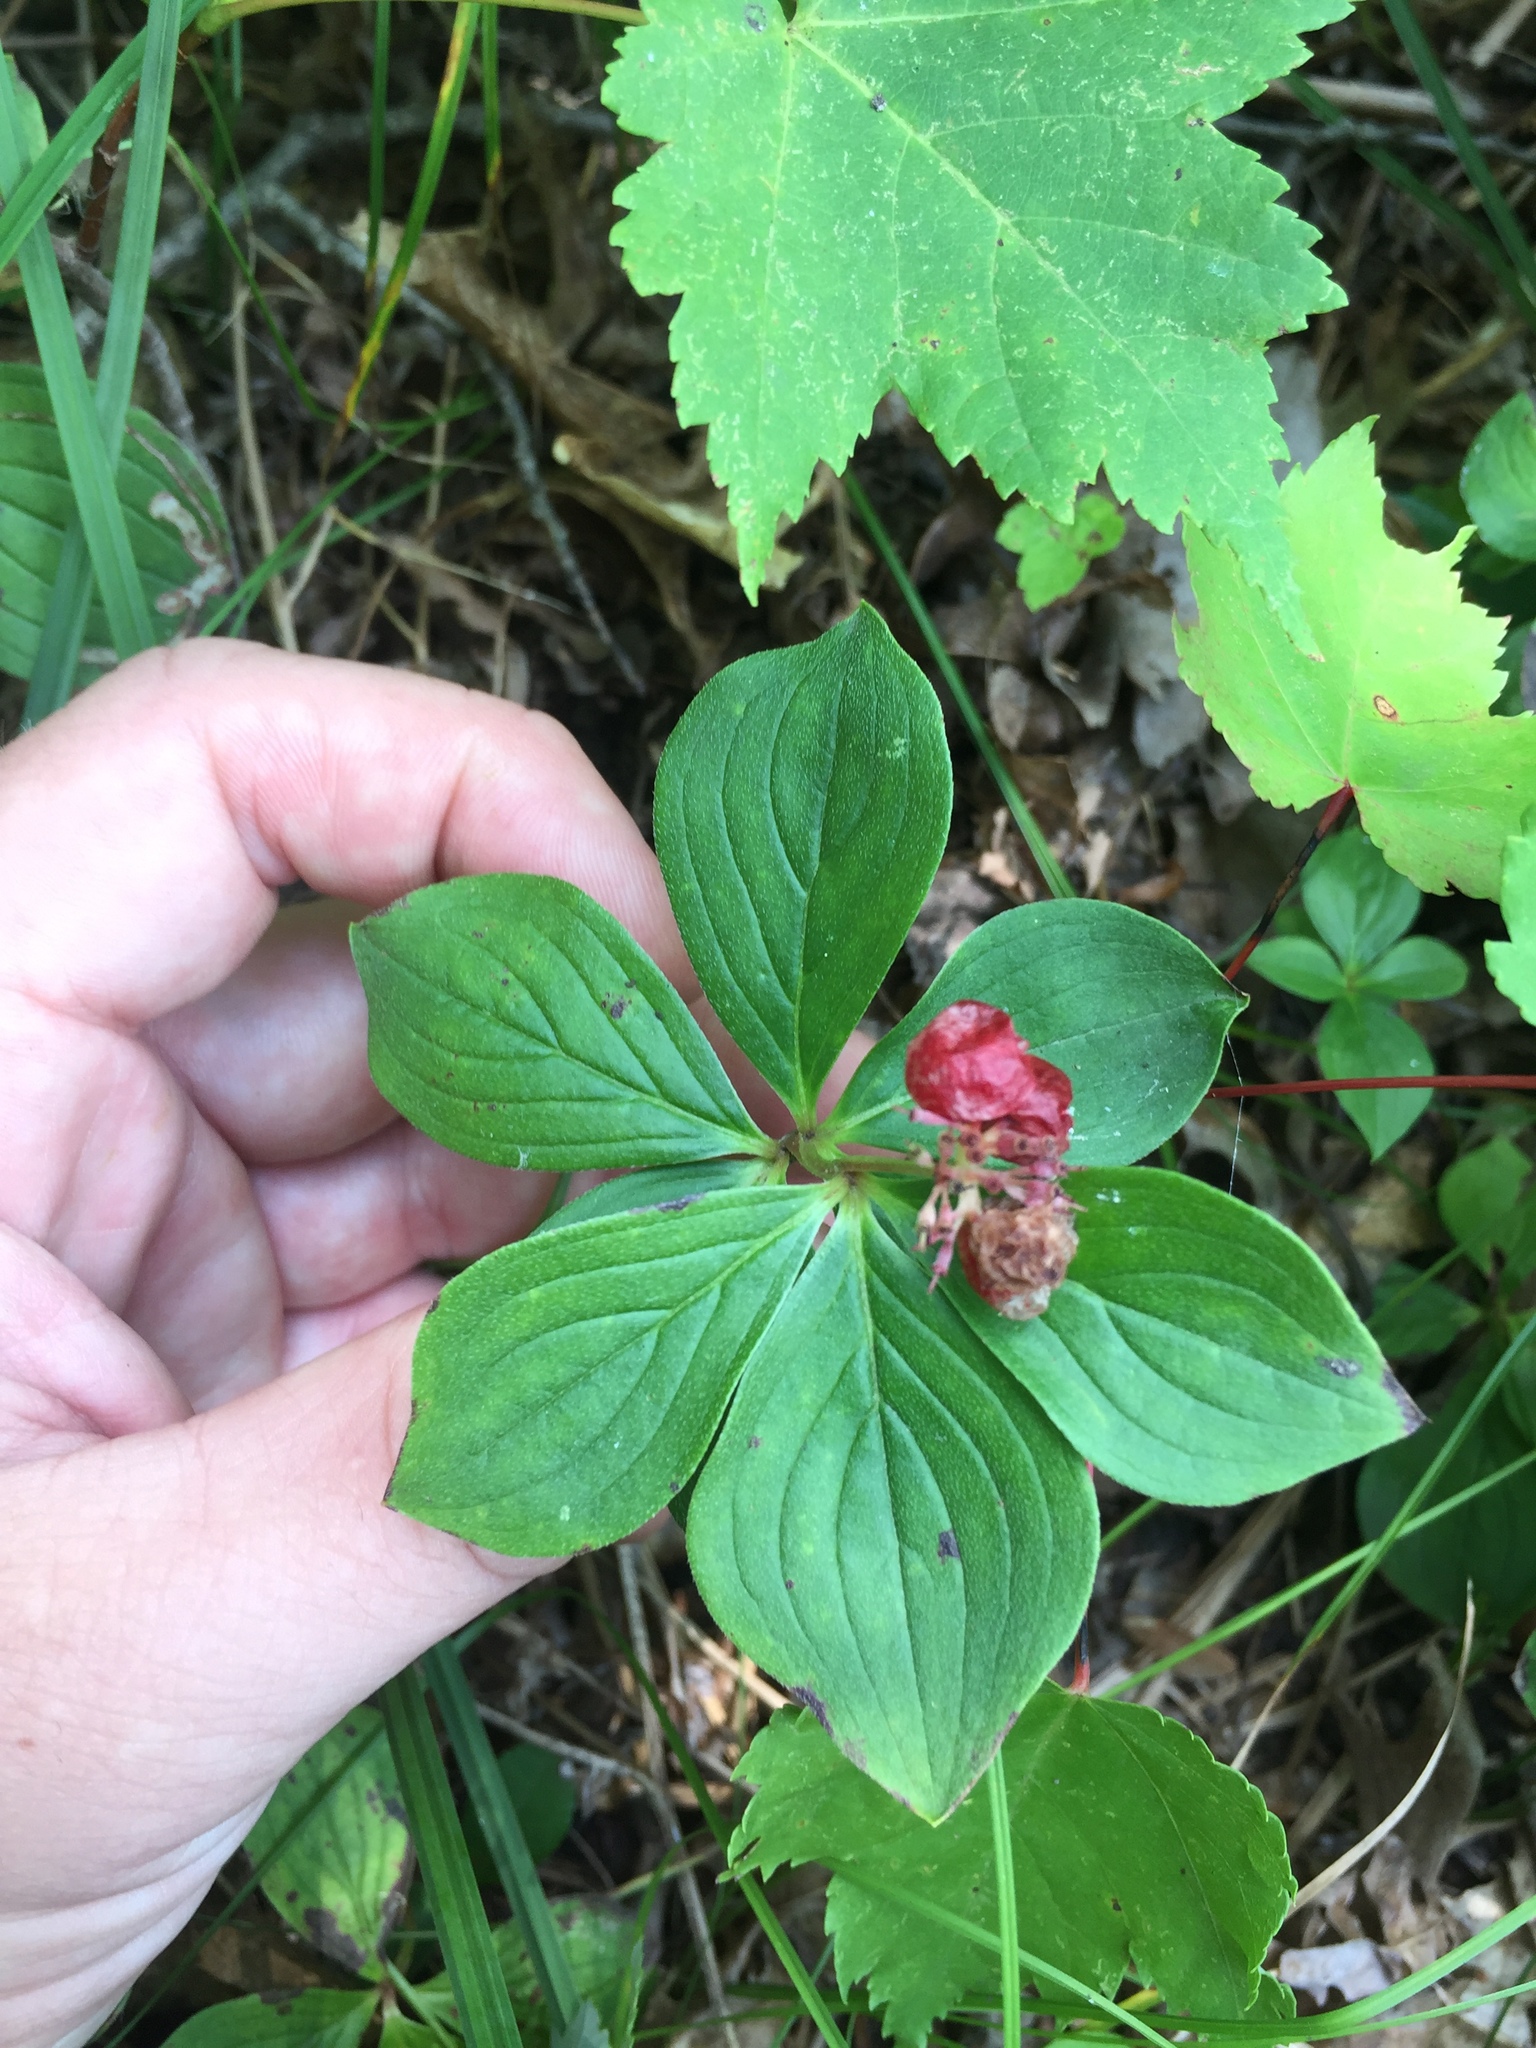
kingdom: Plantae
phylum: Tracheophyta
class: Magnoliopsida
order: Cornales
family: Cornaceae
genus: Cornus
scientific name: Cornus canadensis
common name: Creeping dogwood
